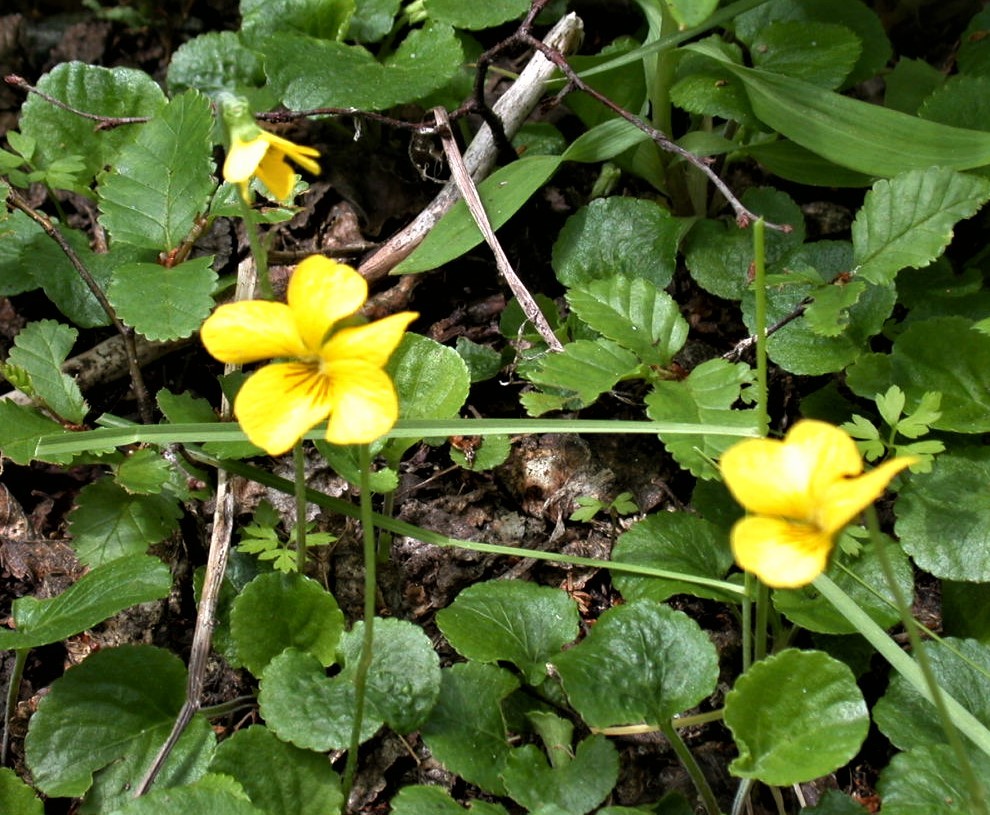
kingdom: Plantae
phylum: Tracheophyta
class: Magnoliopsida
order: Malpighiales
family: Violaceae
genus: Viola
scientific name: Viola maculata
